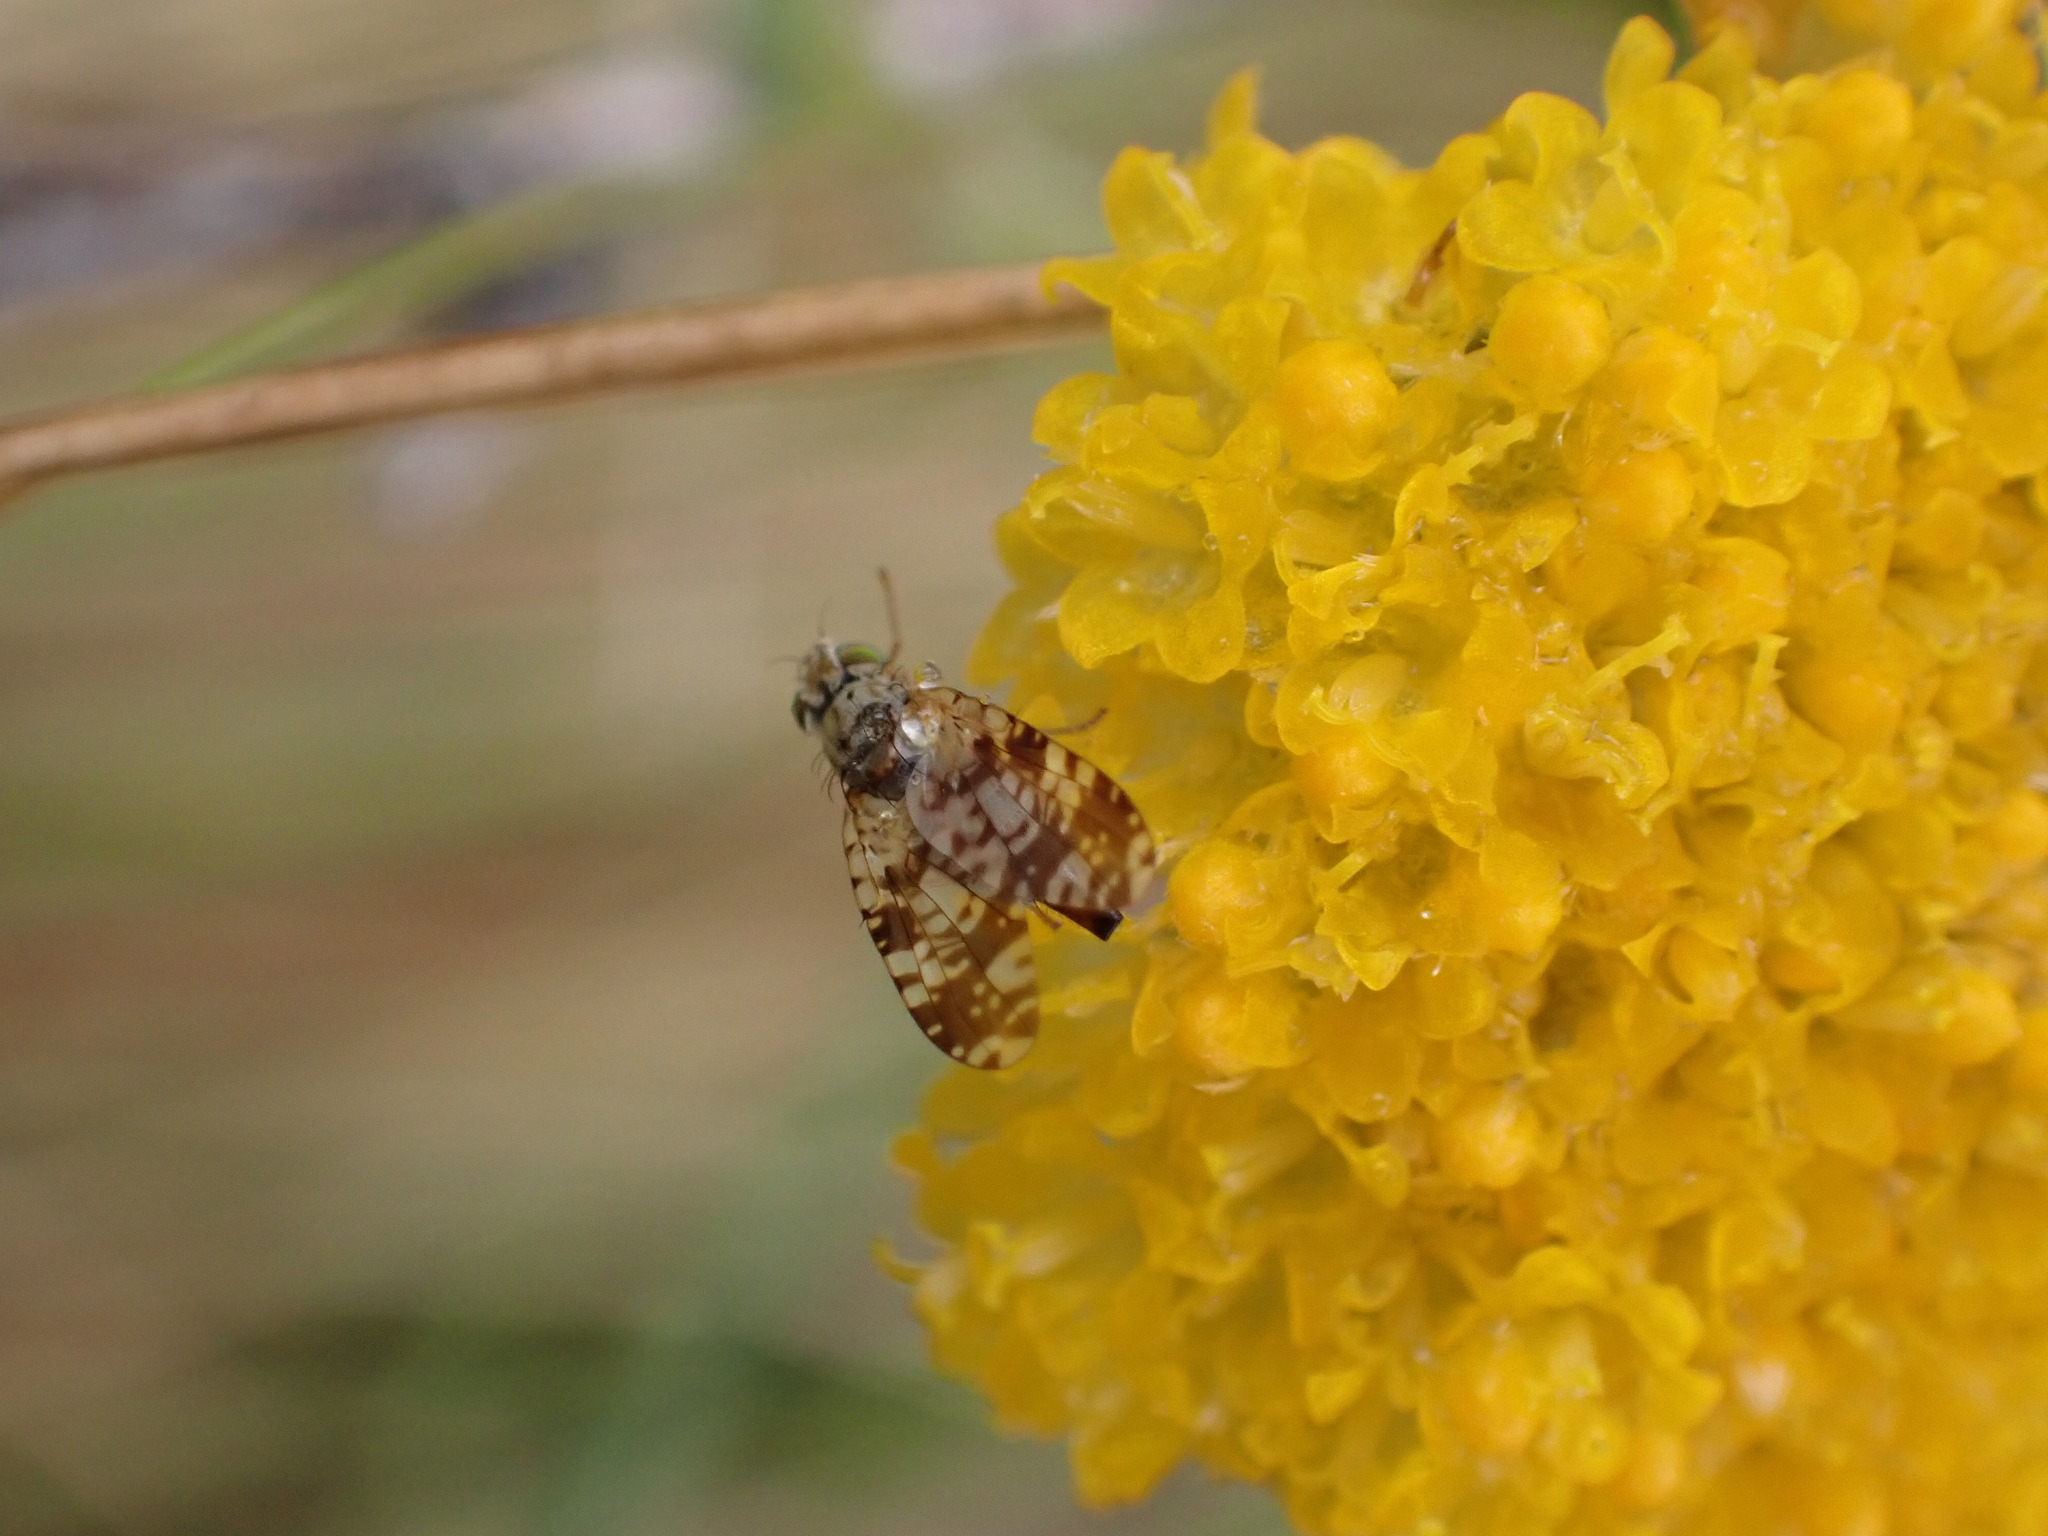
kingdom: Animalia
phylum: Arthropoda
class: Insecta
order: Diptera
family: Tephritidae
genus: Austrotephritis
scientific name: Austrotephritis
